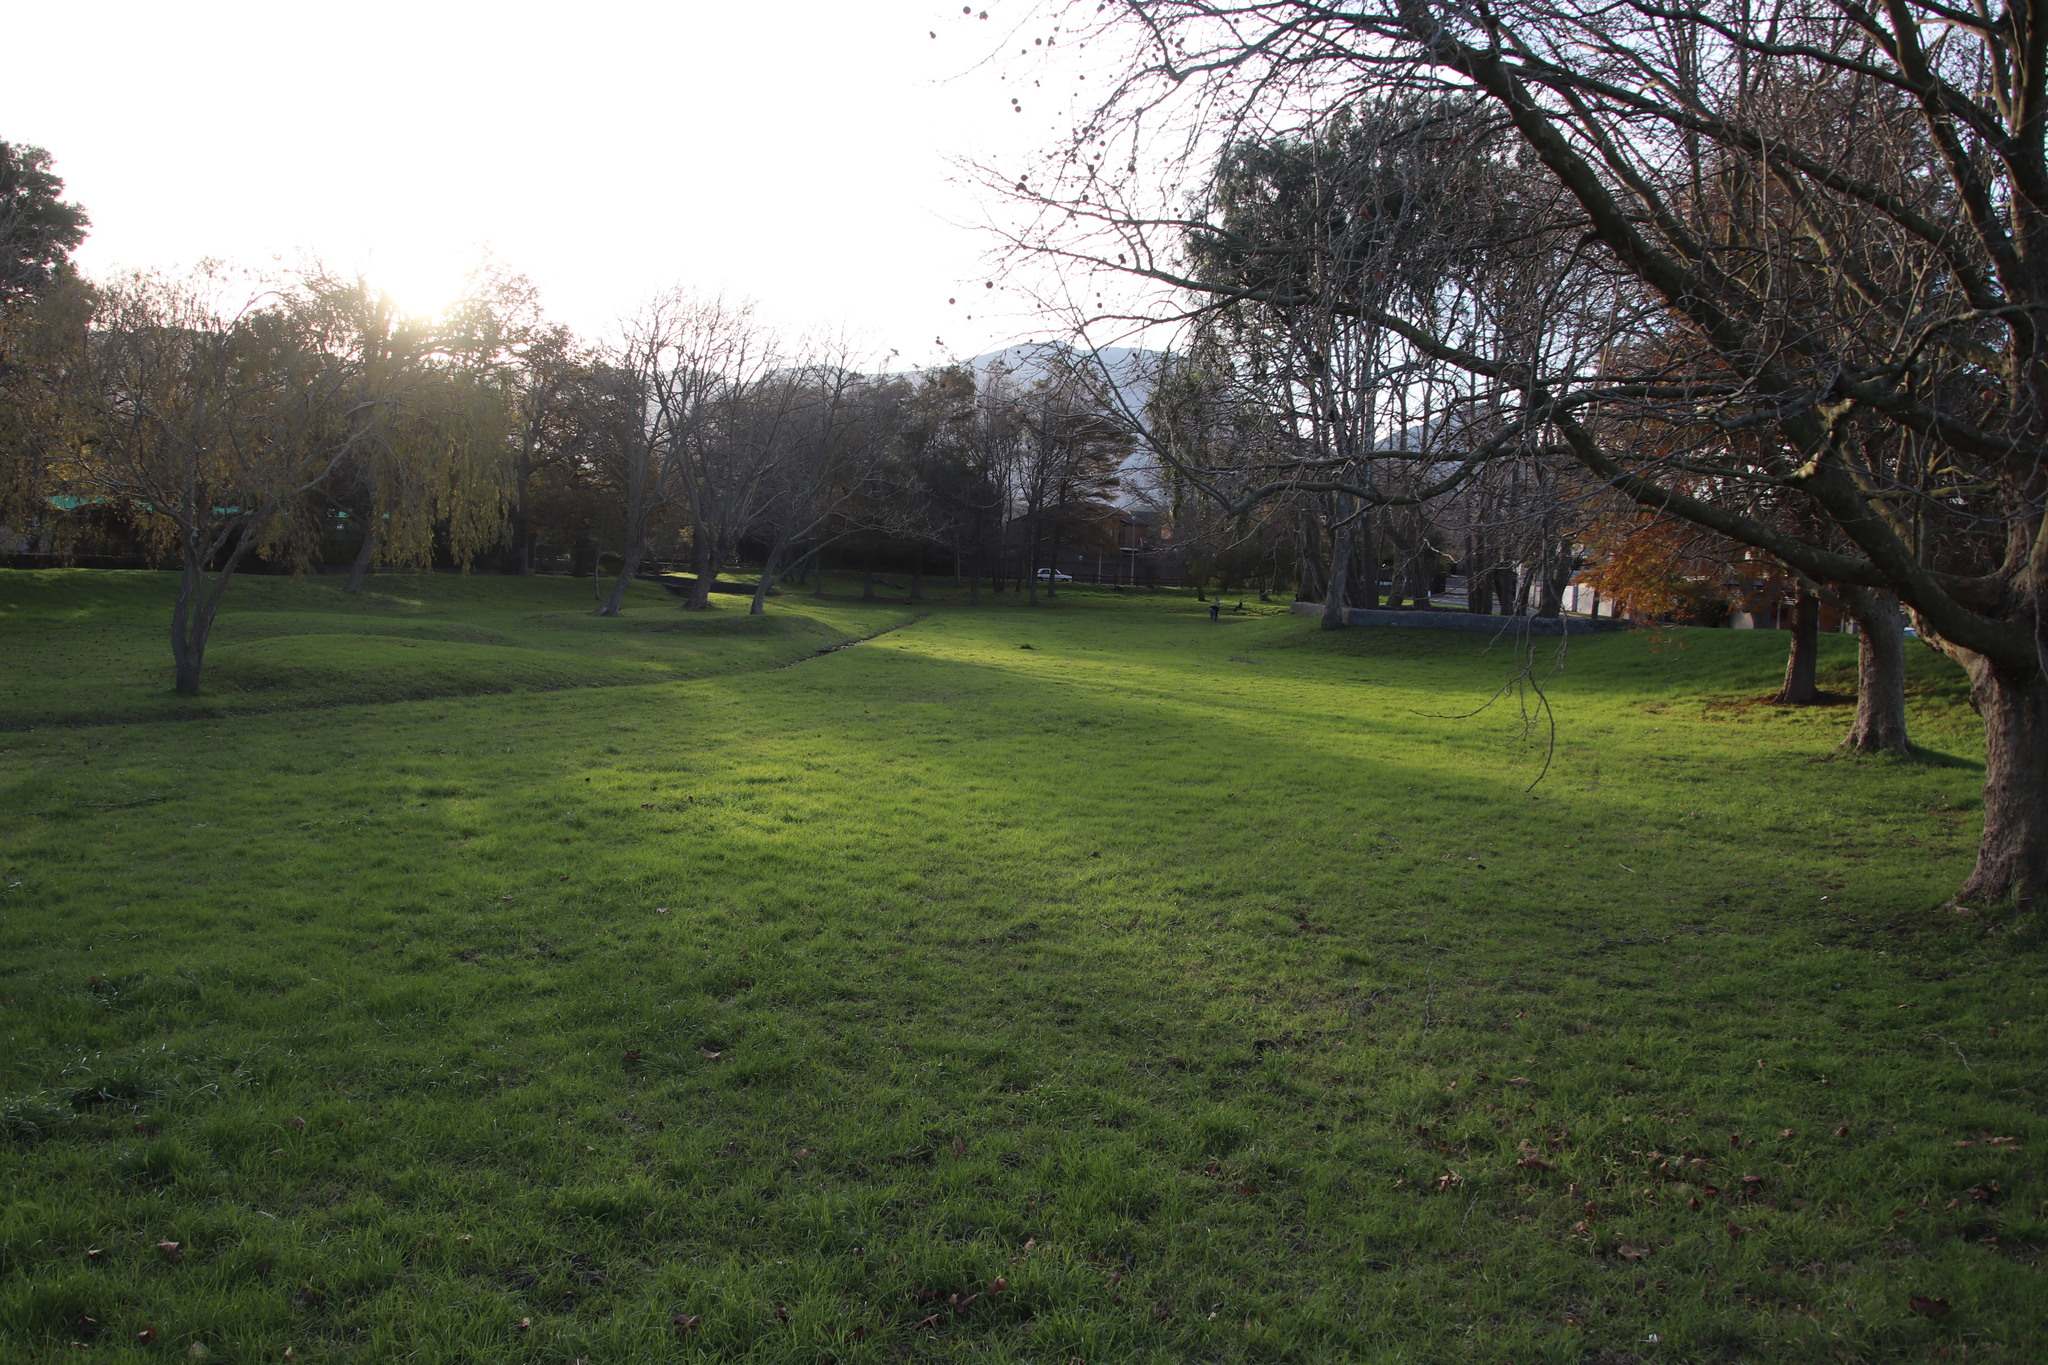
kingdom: Plantae
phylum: Tracheophyta
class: Liliopsida
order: Poales
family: Poaceae
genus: Cenchrus
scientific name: Cenchrus clandestinus
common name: Kikuyugrass
